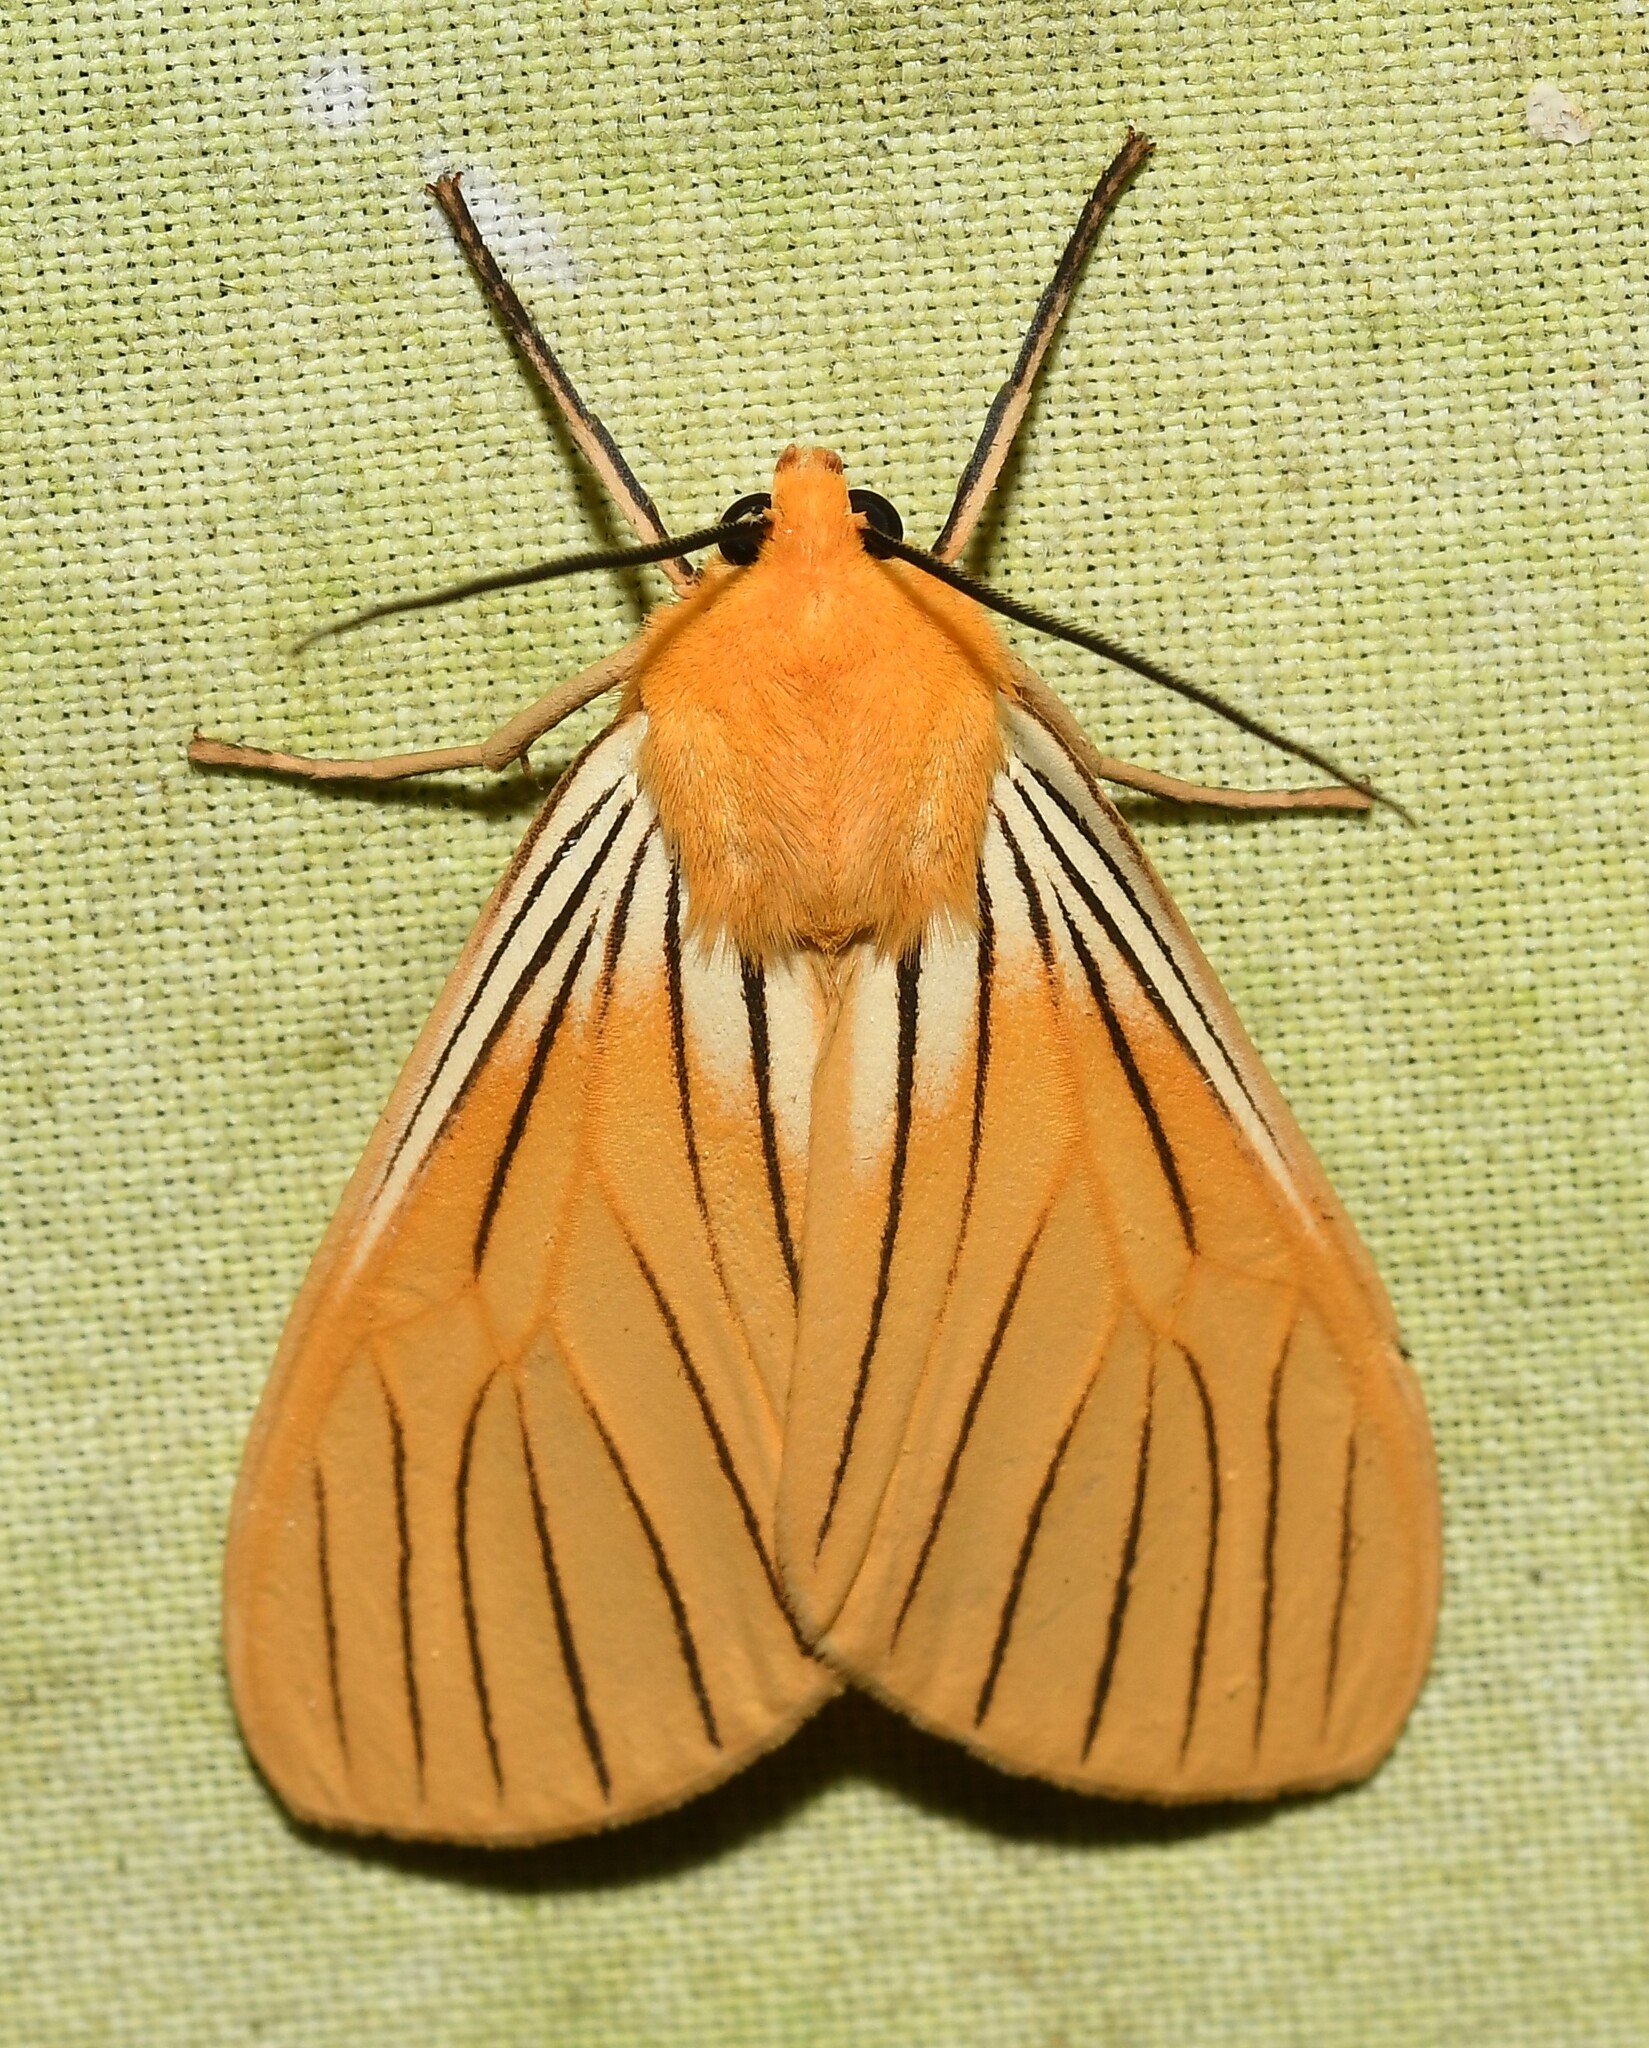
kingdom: Animalia
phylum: Arthropoda
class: Insecta
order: Lepidoptera
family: Erebidae
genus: Pseudischnocampa
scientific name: Pseudischnocampa
